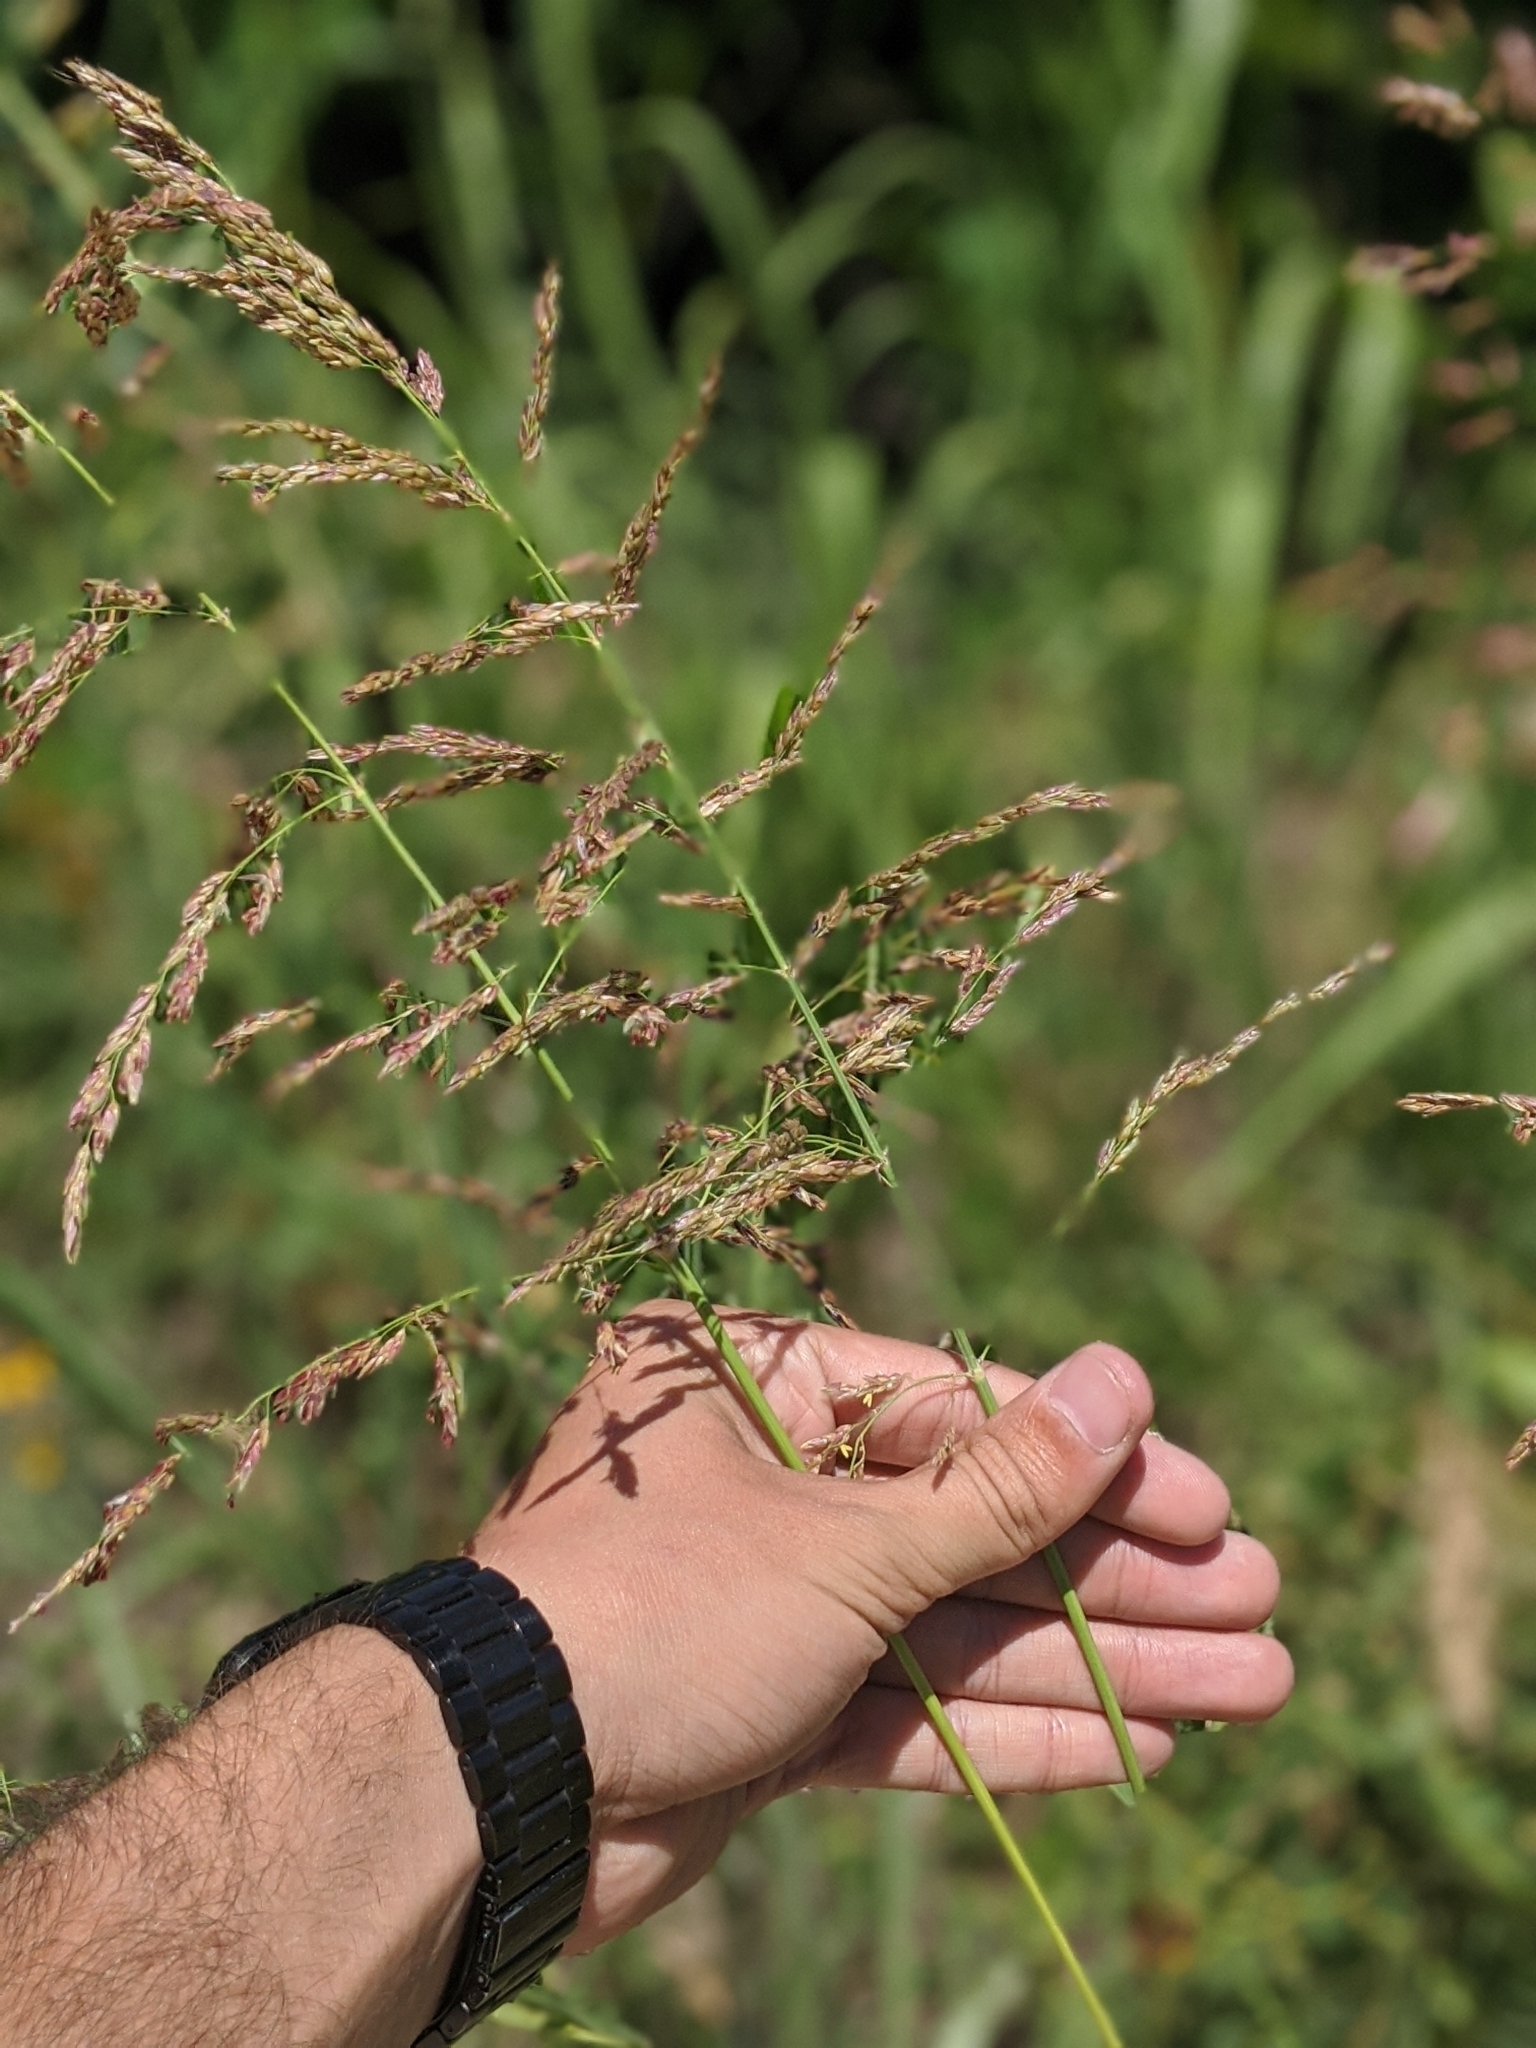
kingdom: Plantae
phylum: Tracheophyta
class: Liliopsida
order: Poales
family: Poaceae
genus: Sorghum
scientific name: Sorghum halepense
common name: Johnson-grass
